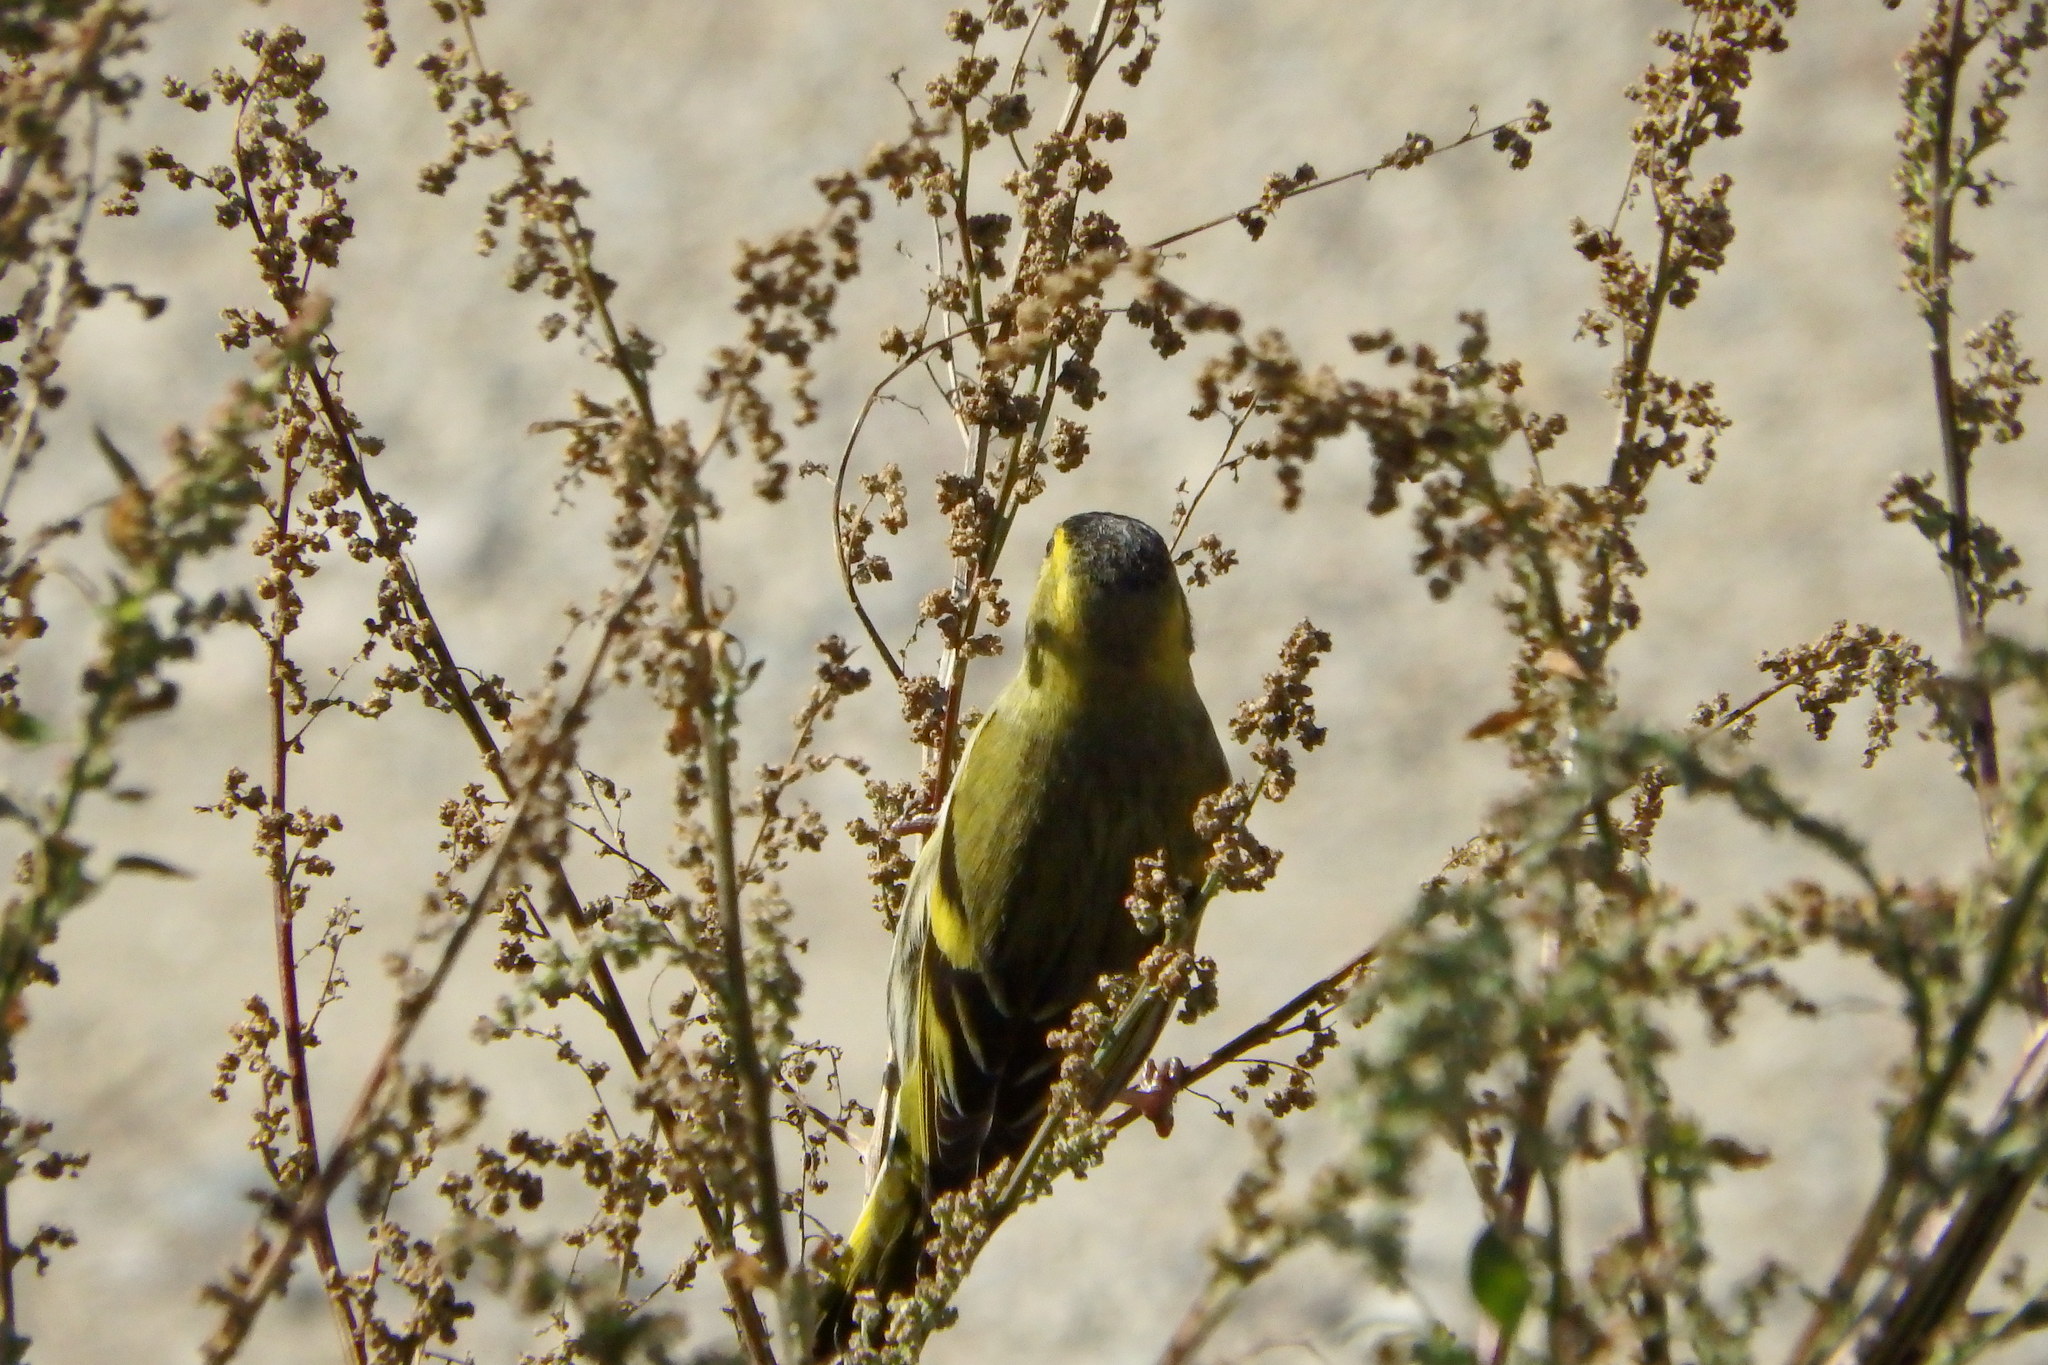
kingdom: Animalia
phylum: Chordata
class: Aves
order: Passeriformes
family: Fringillidae
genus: Spinus
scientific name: Spinus spinus
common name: Eurasian siskin
